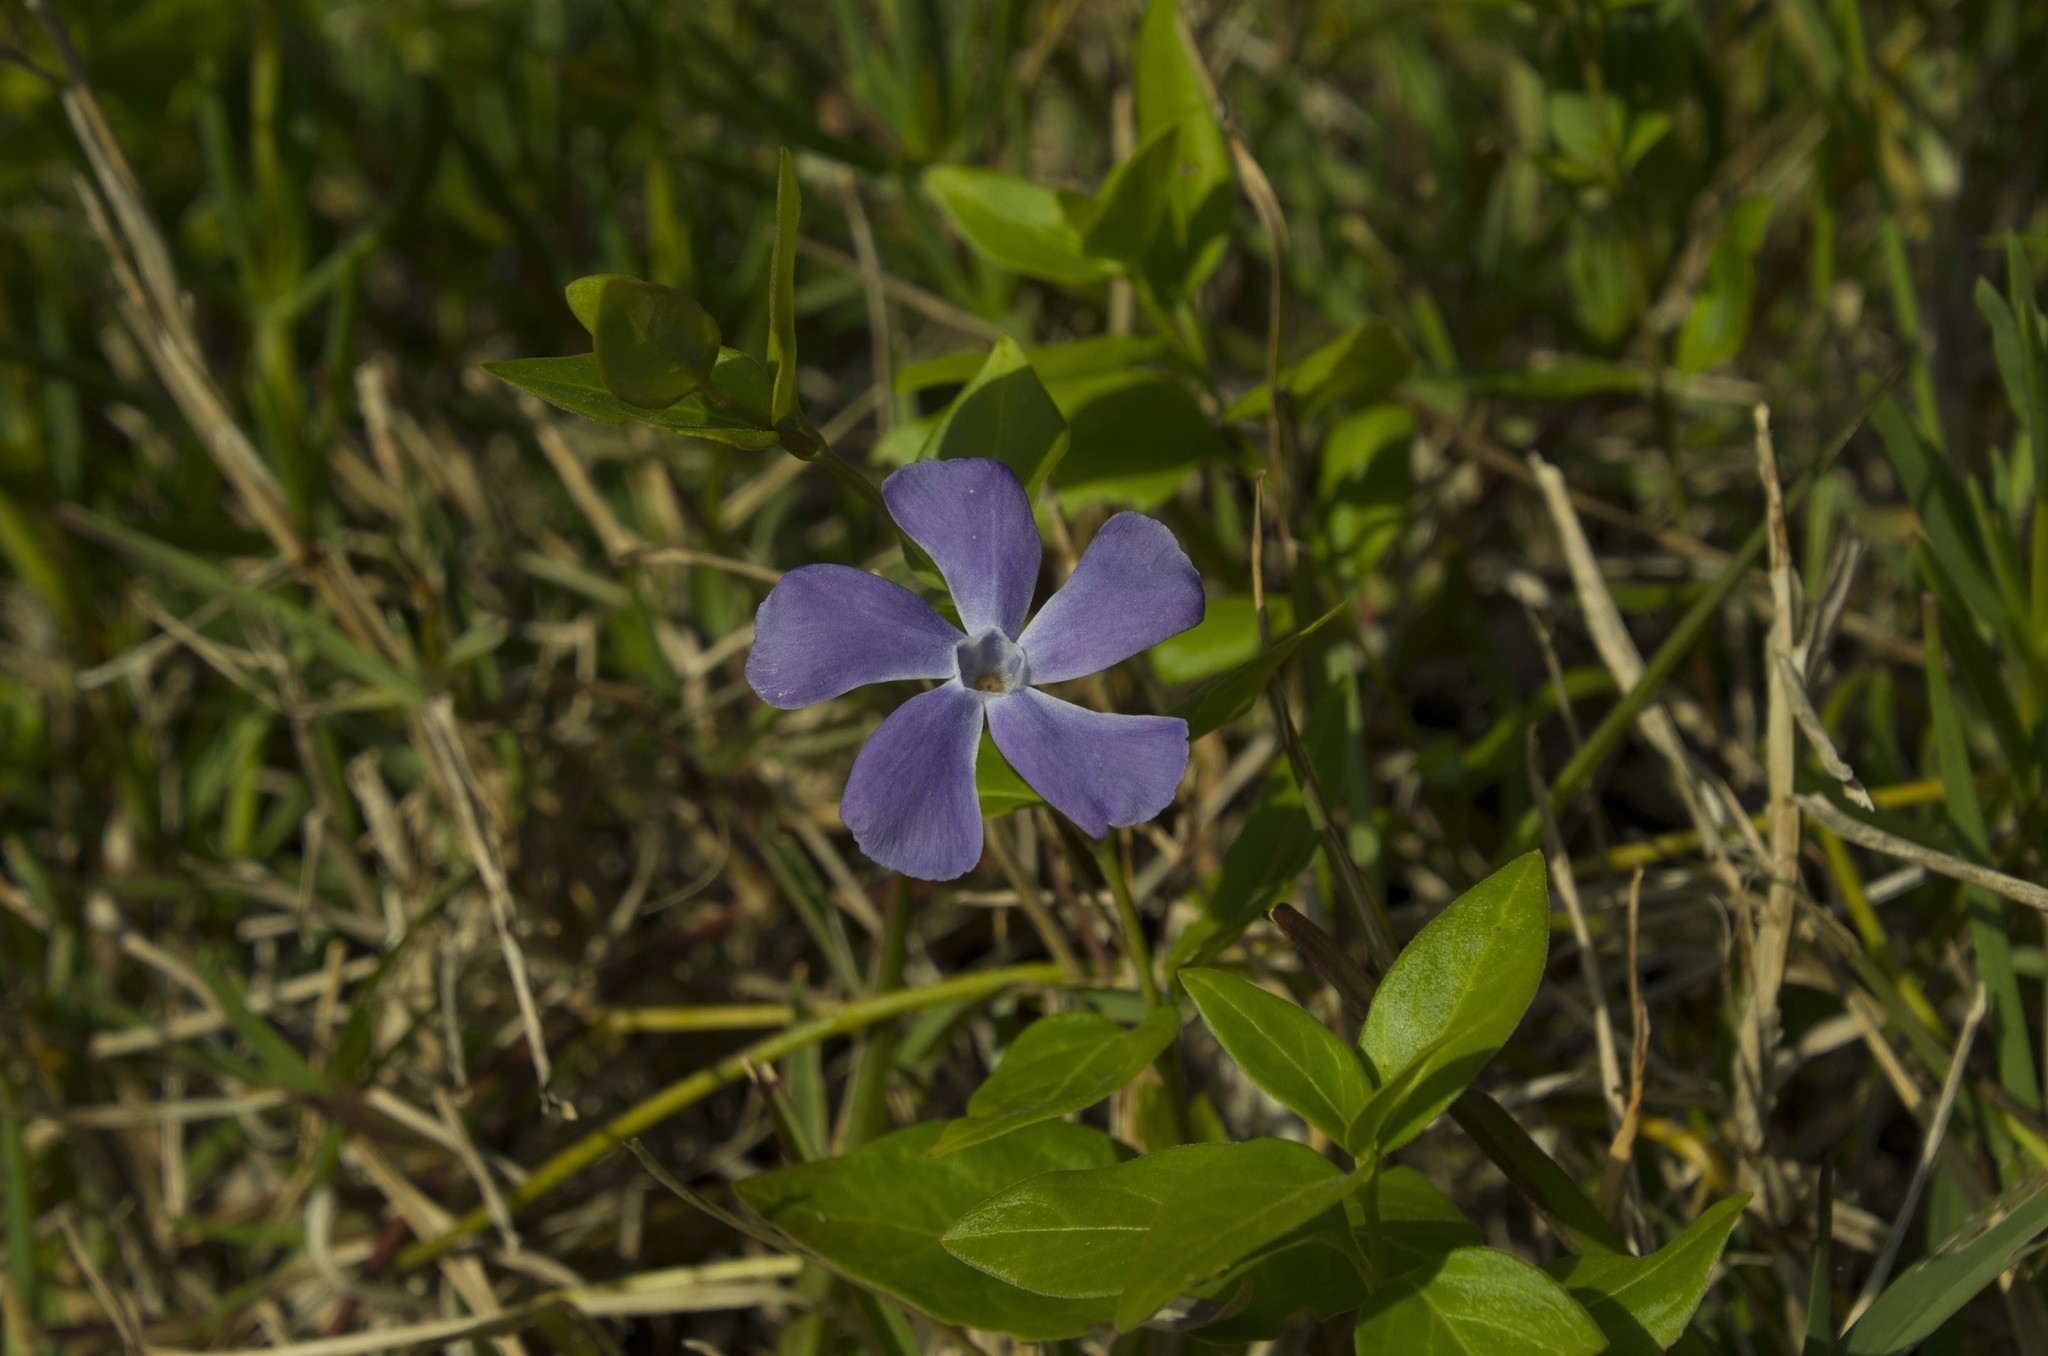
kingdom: Plantae
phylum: Tracheophyta
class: Magnoliopsida
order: Gentianales
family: Apocynaceae
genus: Vinca
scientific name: Vinca major
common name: Greater periwinkle
